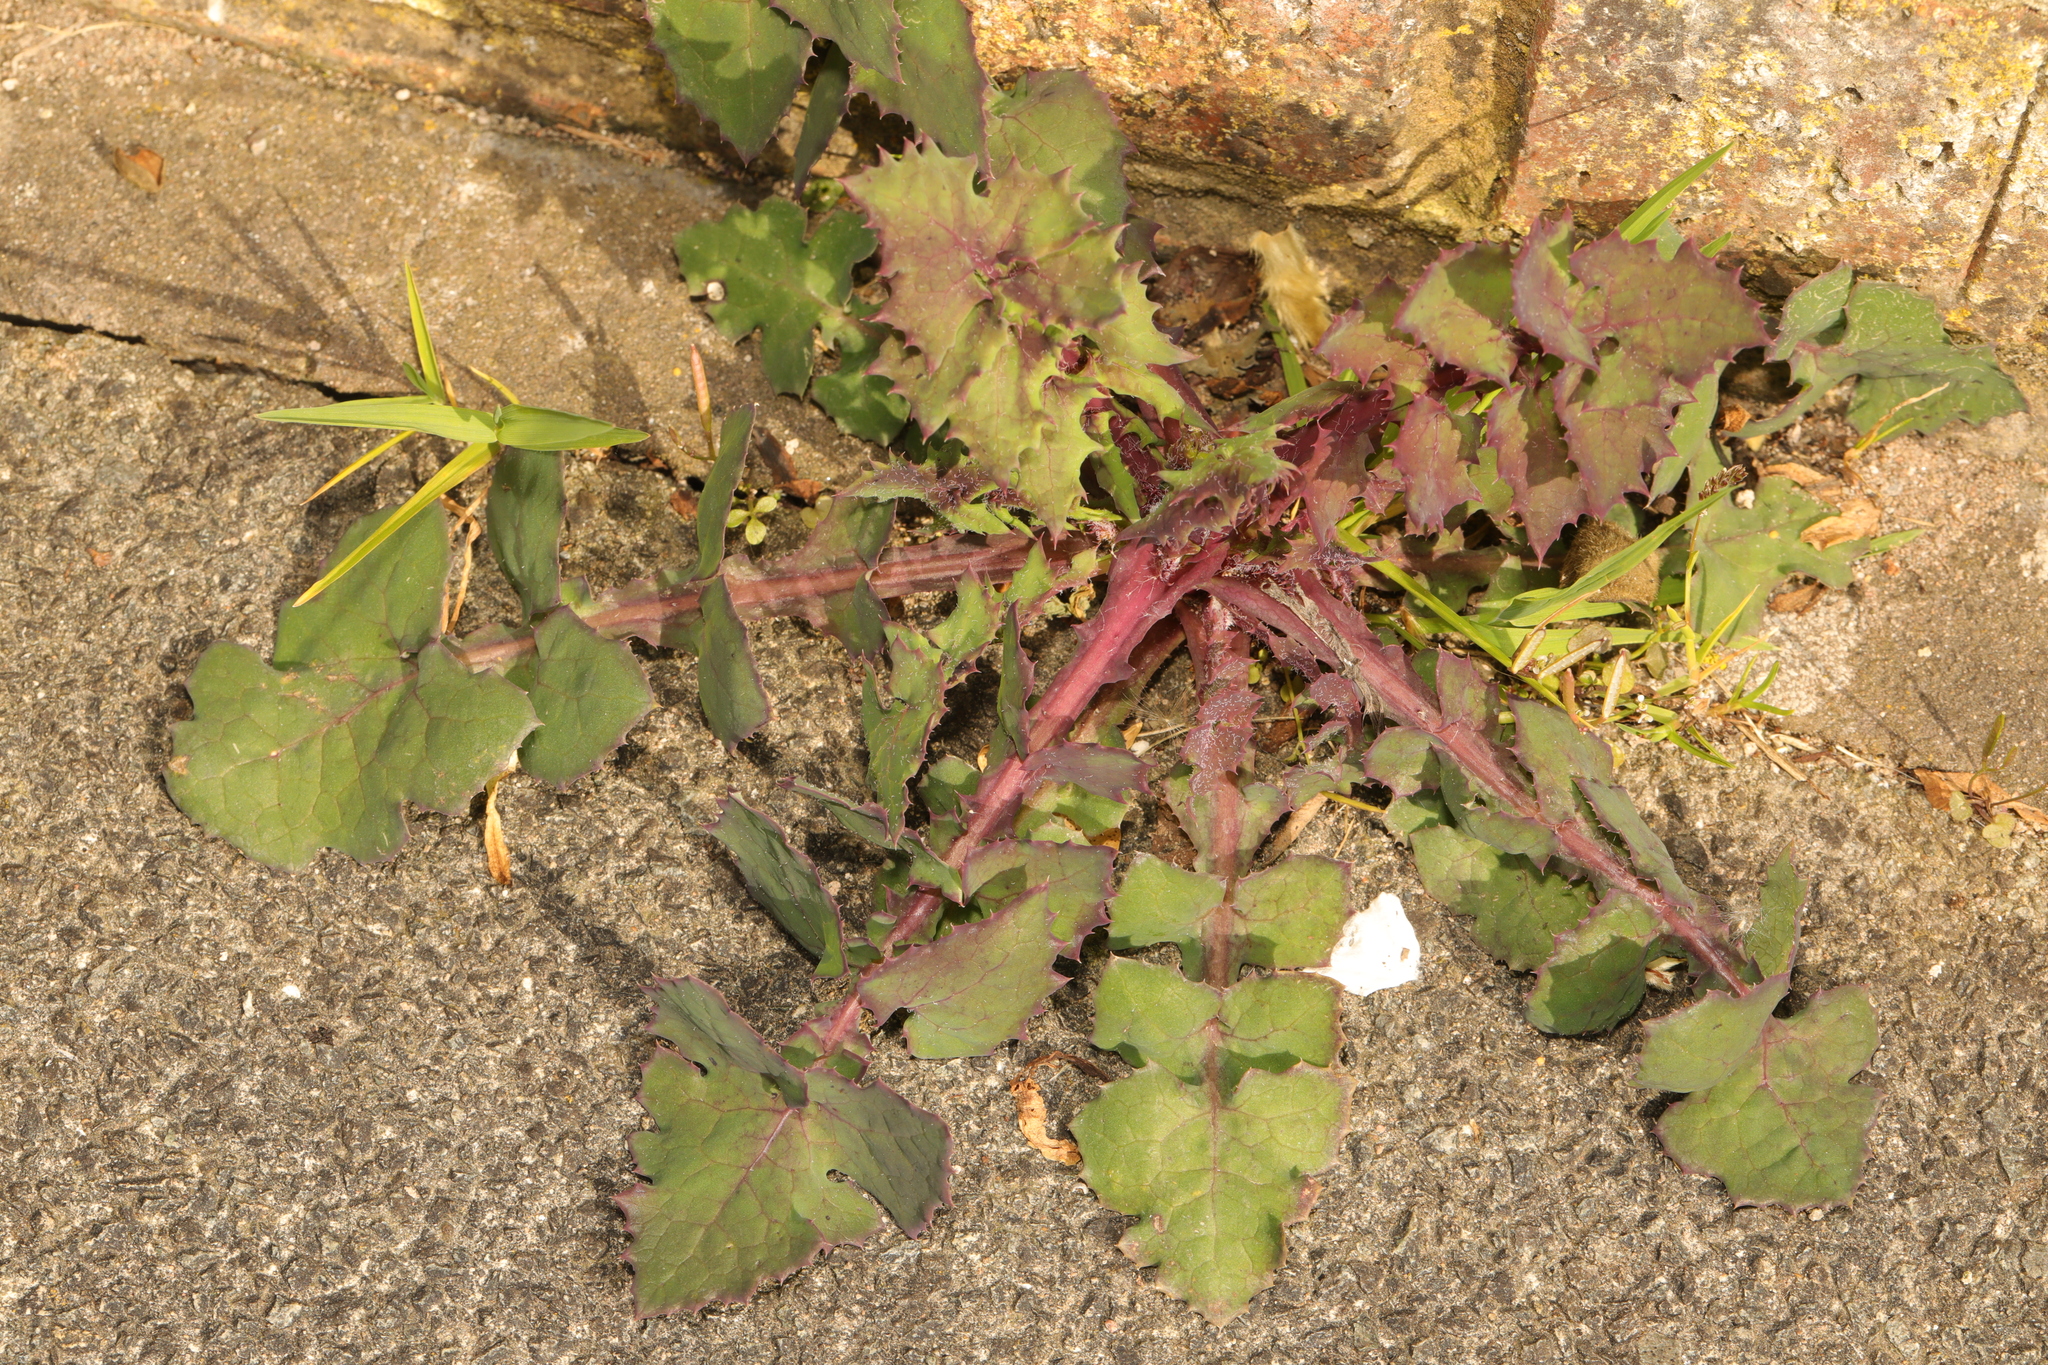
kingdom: Plantae
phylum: Tracheophyta
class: Magnoliopsida
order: Asterales
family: Asteraceae
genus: Sonchus
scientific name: Sonchus oleraceus
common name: Common sowthistle
